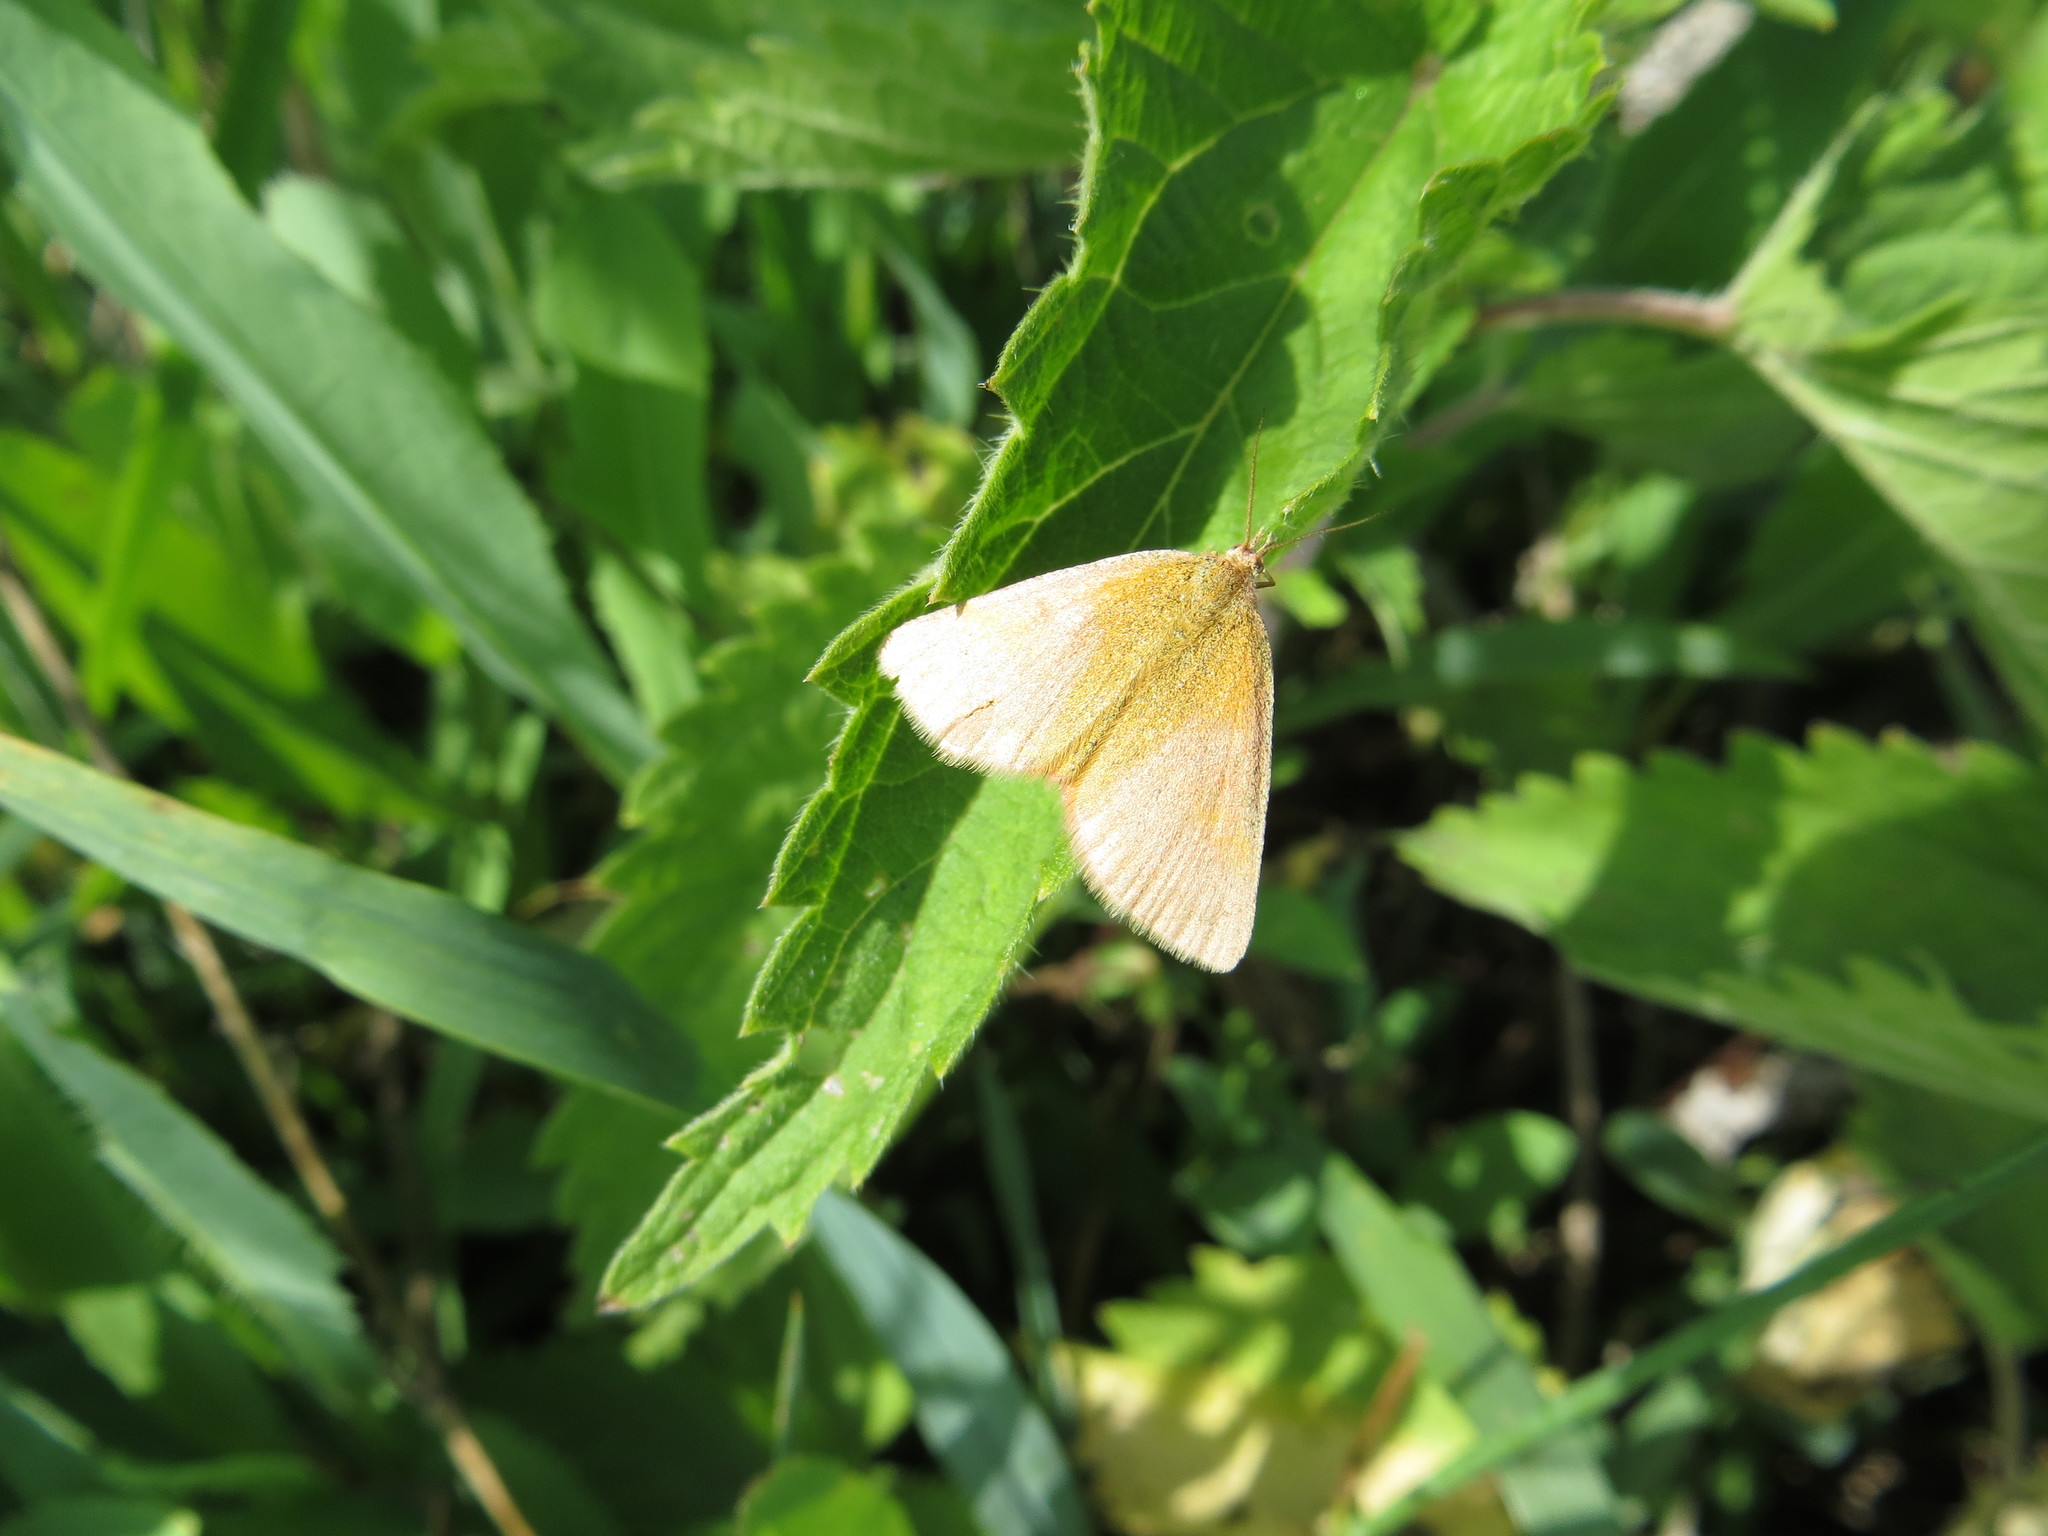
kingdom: Animalia
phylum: Arthropoda
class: Insecta
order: Lepidoptera
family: Geometridae
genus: Lythria
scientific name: Lythria purpuraria
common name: Purple-barred yellow
